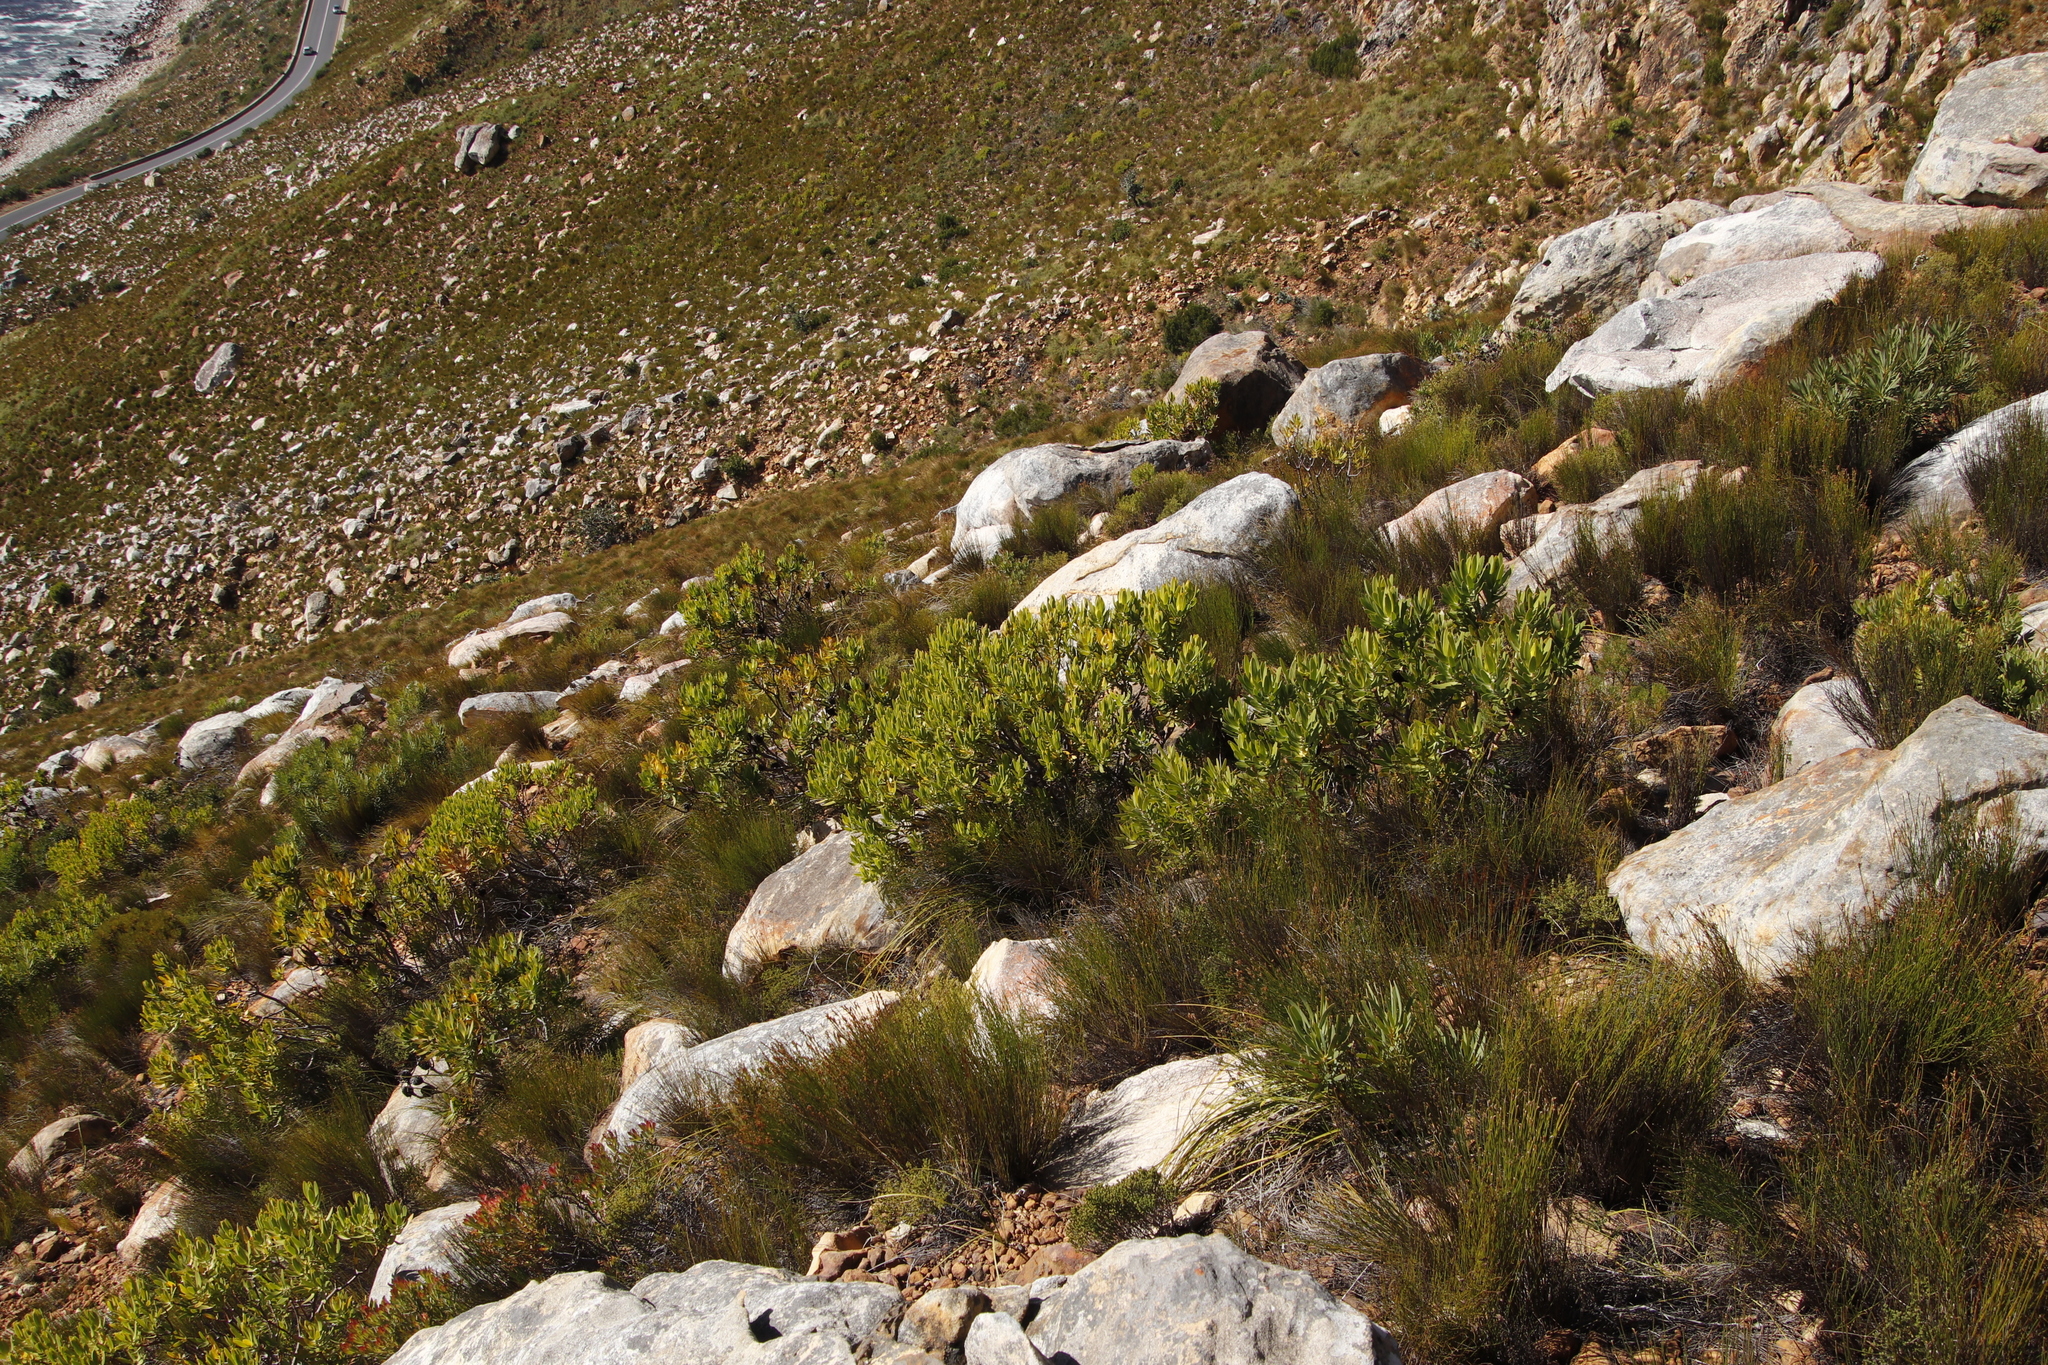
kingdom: Plantae
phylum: Tracheophyta
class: Magnoliopsida
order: Proteales
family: Proteaceae
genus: Leucadendron
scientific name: Leucadendron laureolum
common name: Golden sunshinebush
